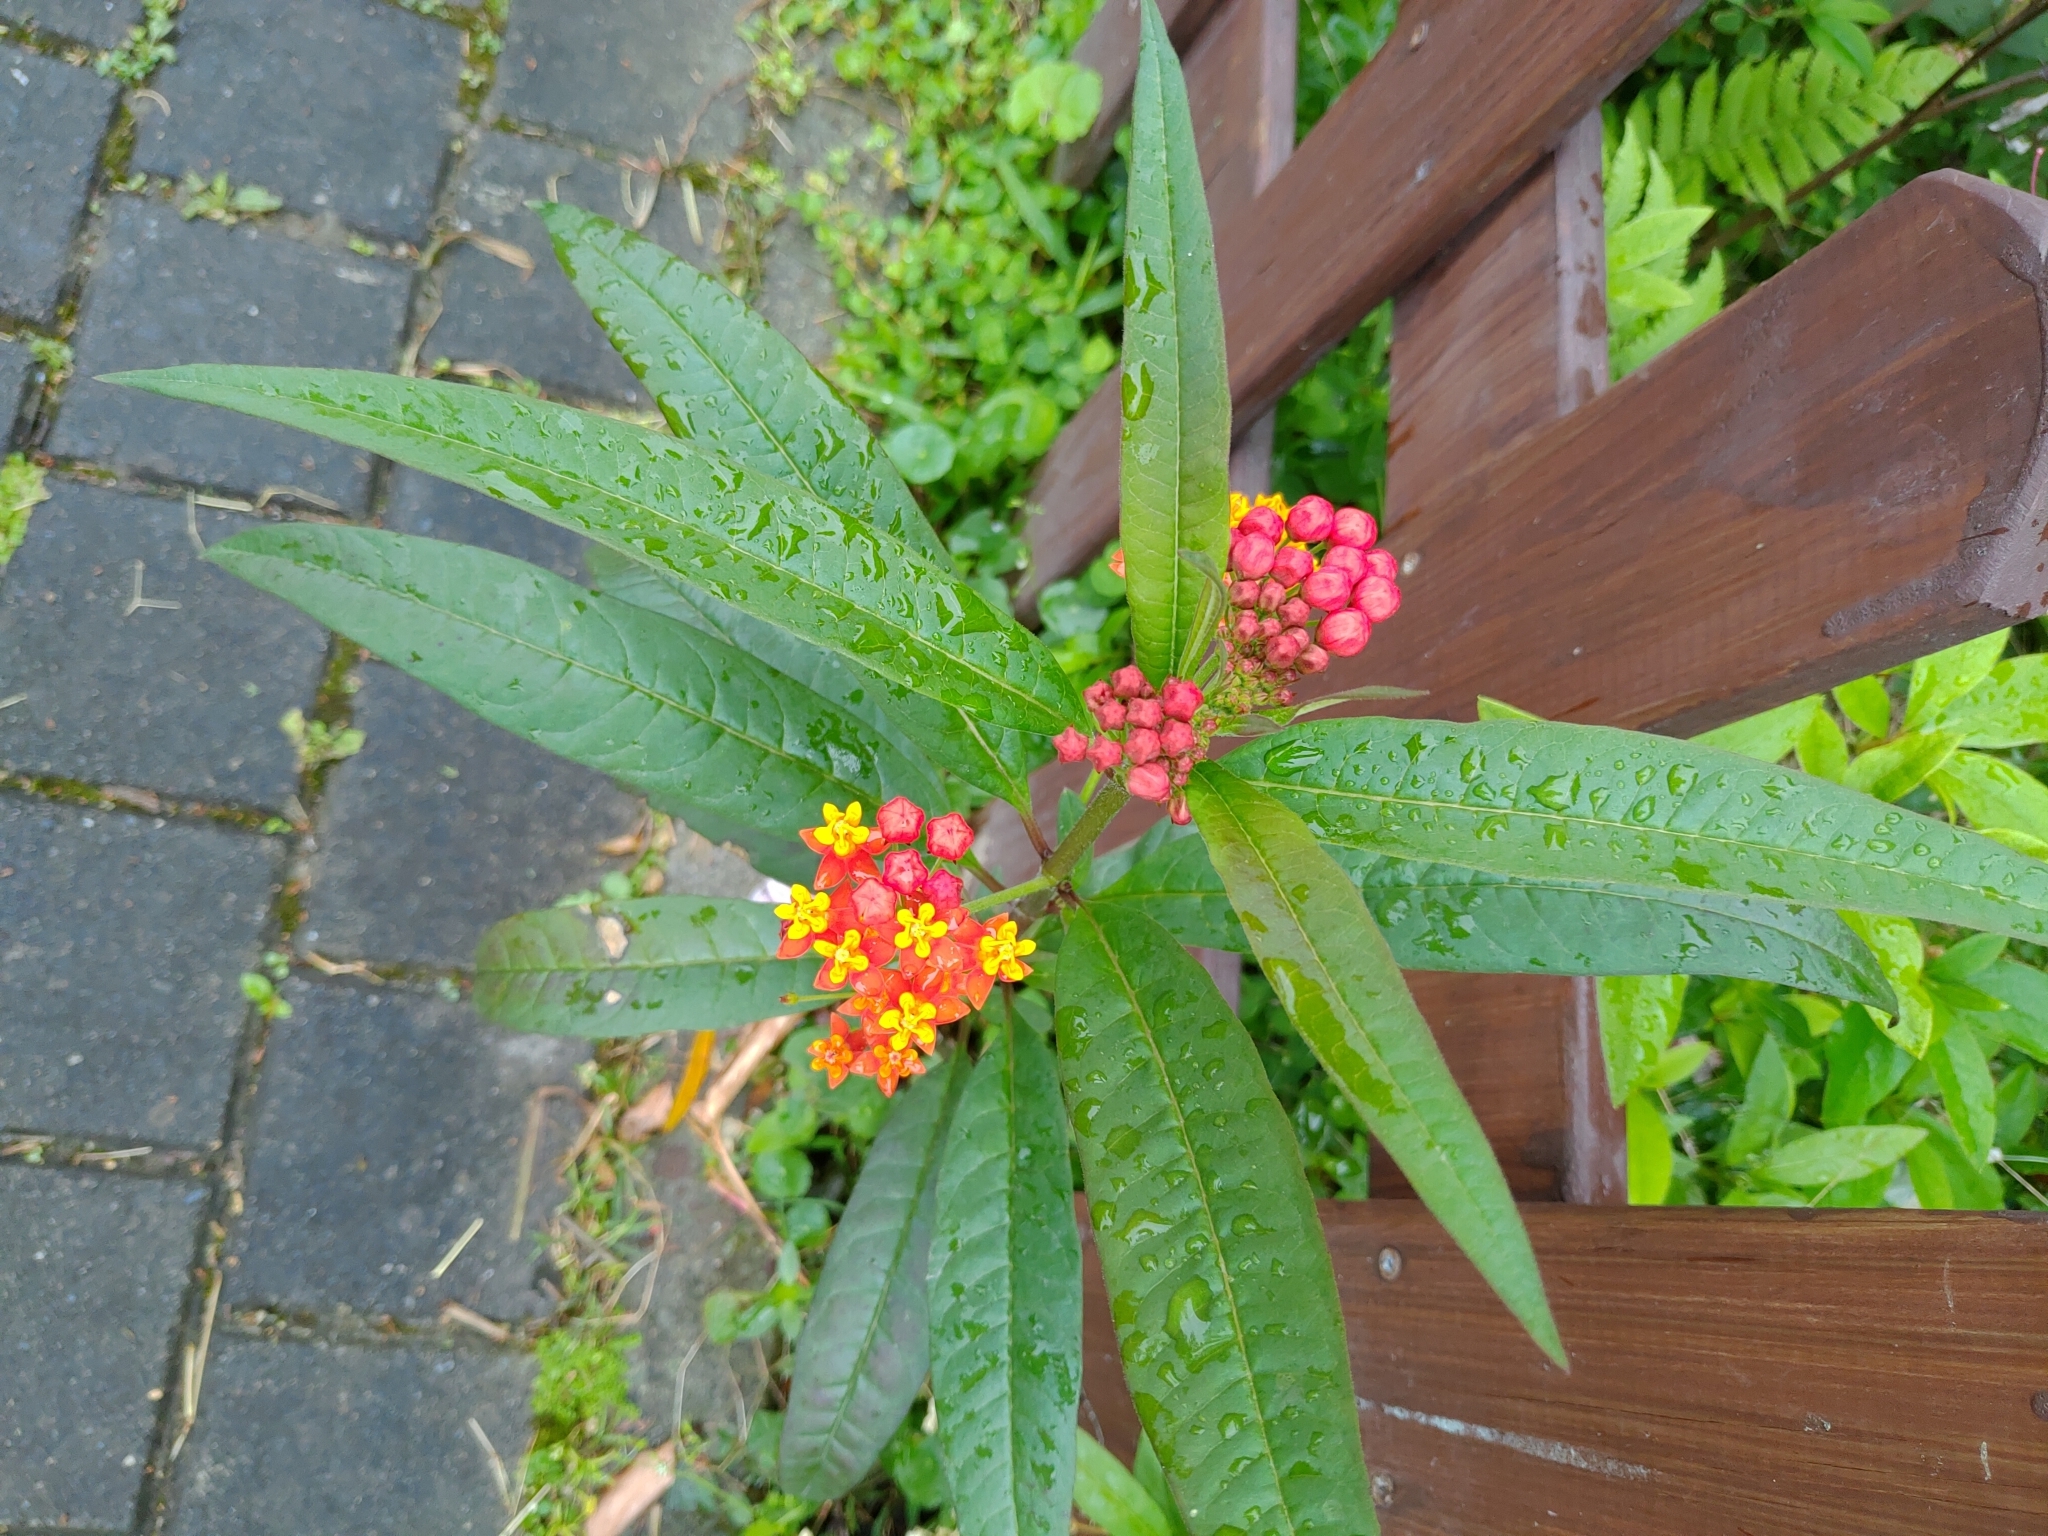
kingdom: Plantae
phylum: Tracheophyta
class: Magnoliopsida
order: Gentianales
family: Apocynaceae
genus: Asclepias
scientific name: Asclepias curassavica
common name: Bloodflower
